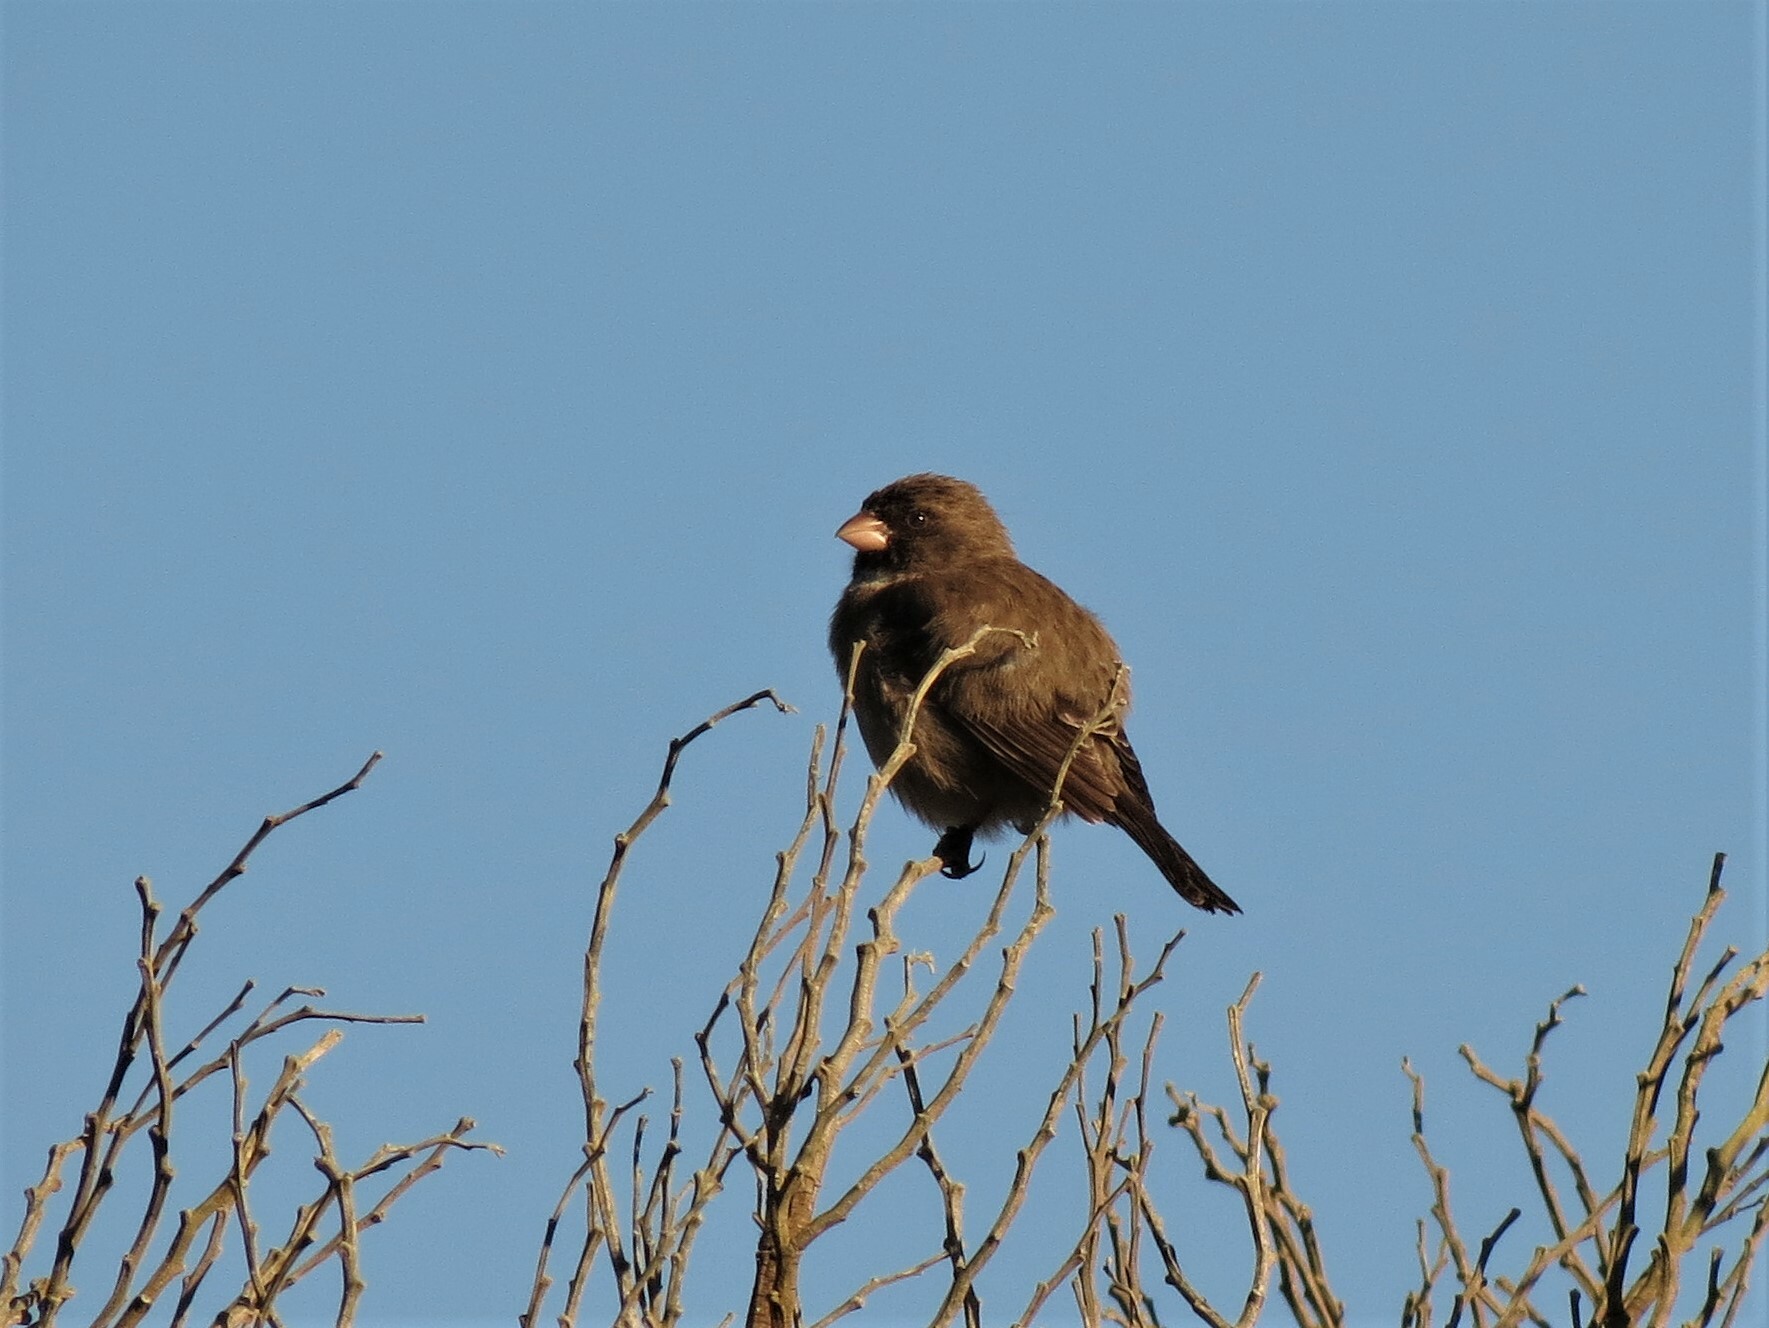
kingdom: Animalia
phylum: Chordata
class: Aves
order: Passeriformes
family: Fringillidae
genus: Crithagra
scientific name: Crithagra leucoptera
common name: Protea canary
